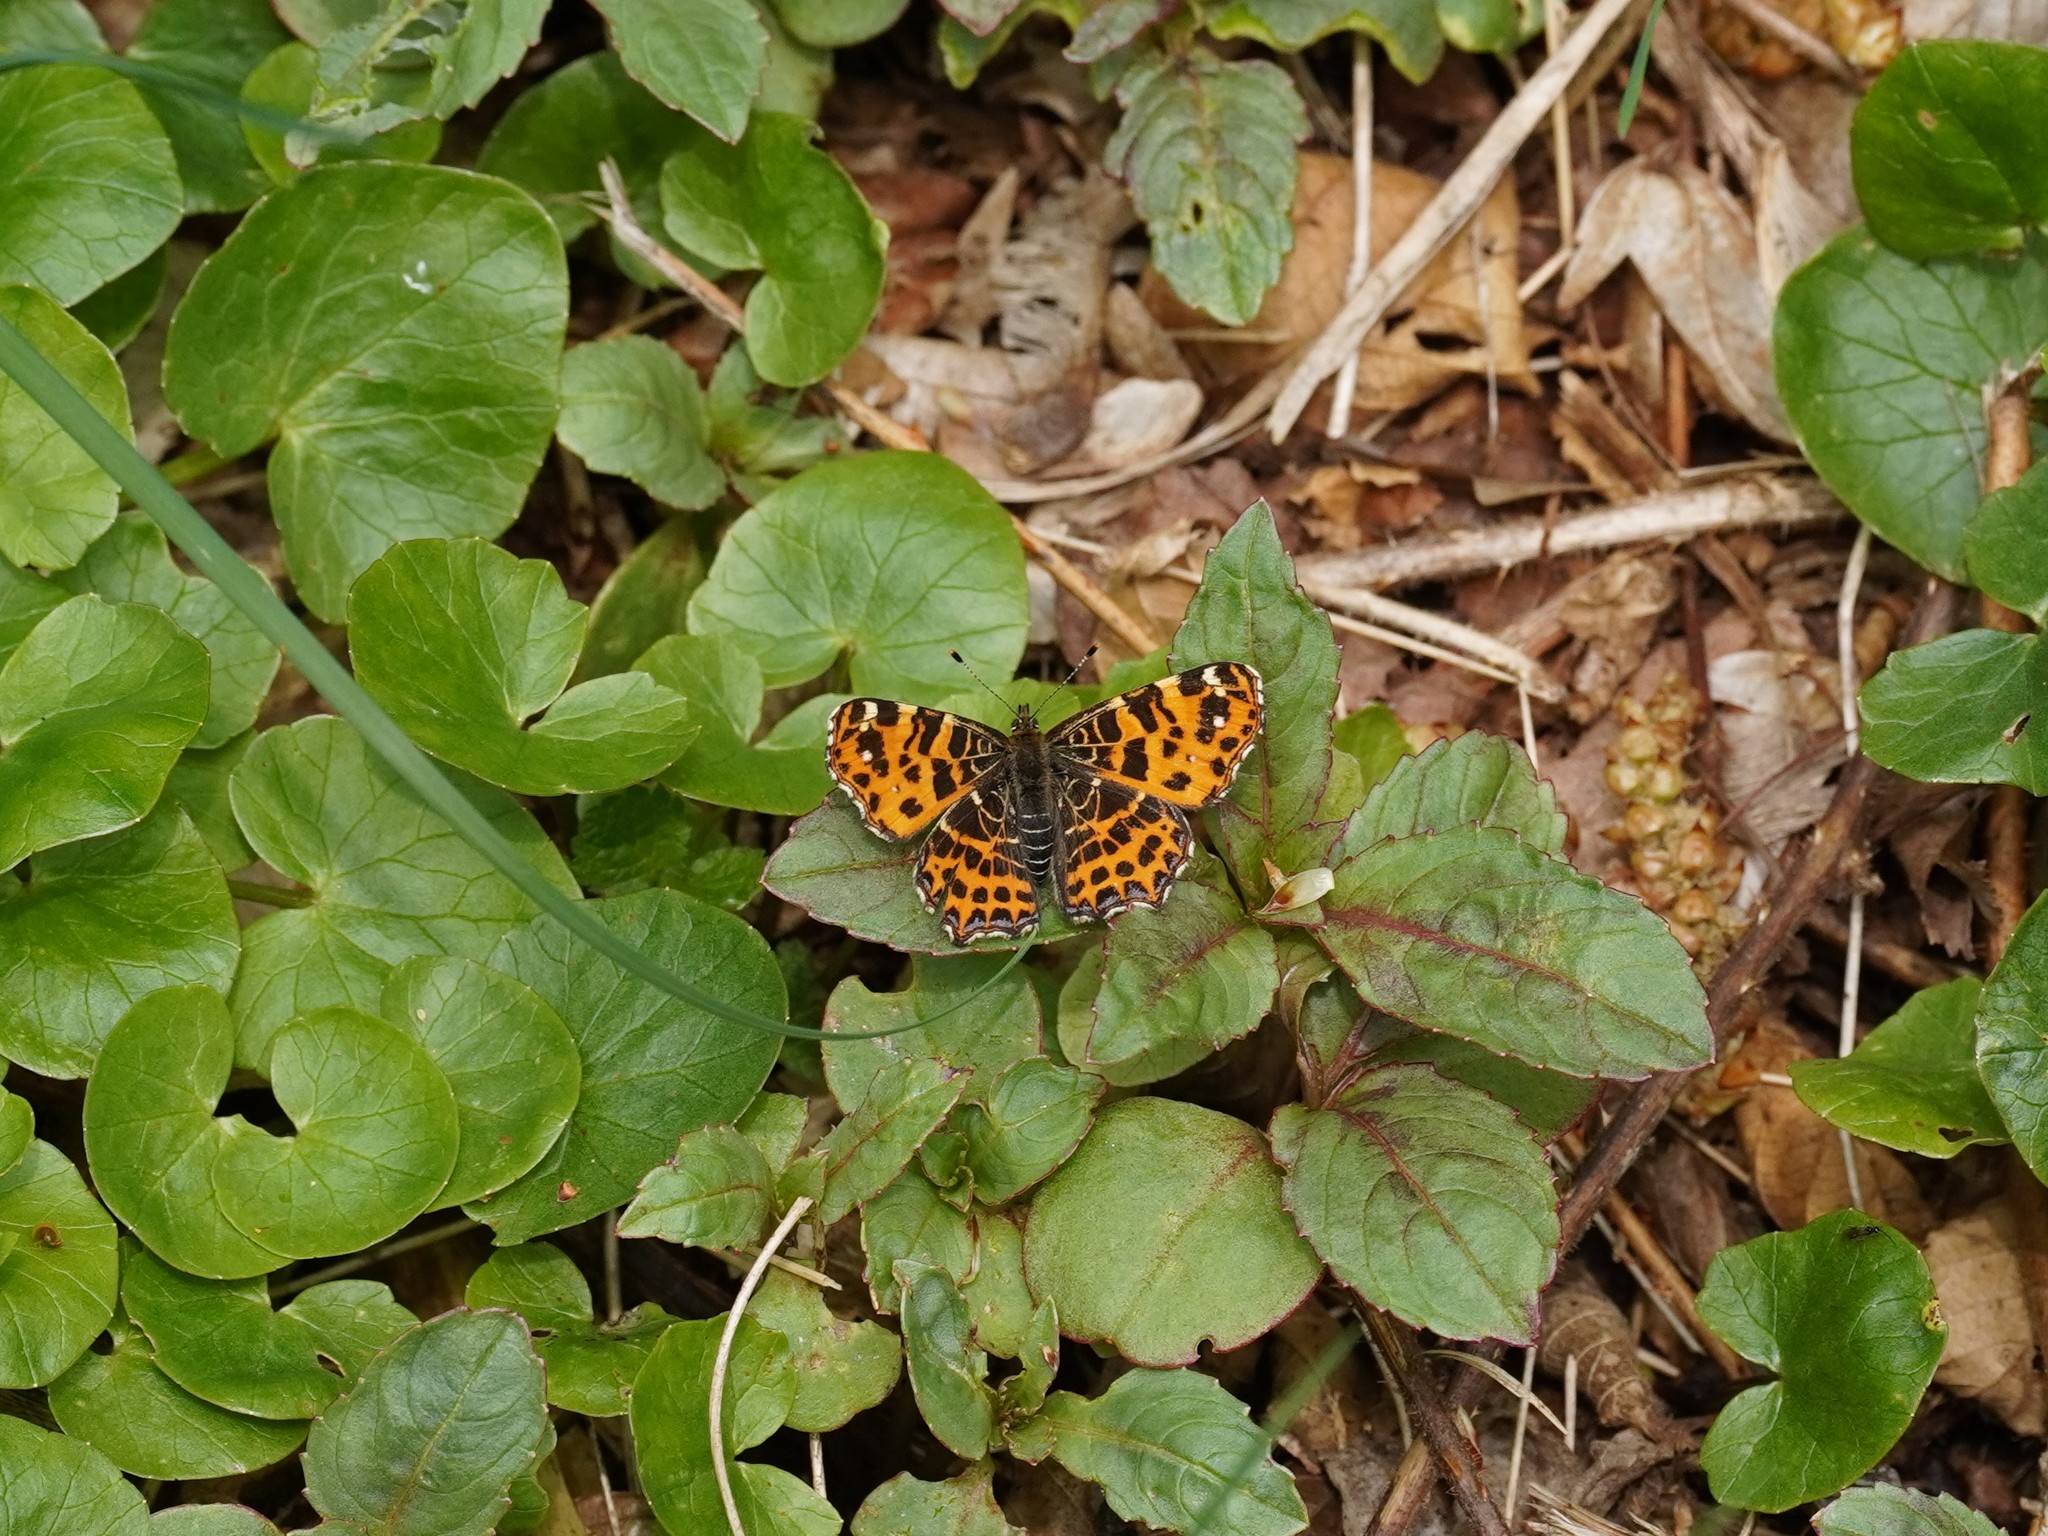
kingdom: Animalia
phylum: Arthropoda
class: Insecta
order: Lepidoptera
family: Nymphalidae
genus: Araschnia
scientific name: Araschnia levana
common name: Map butterfly
